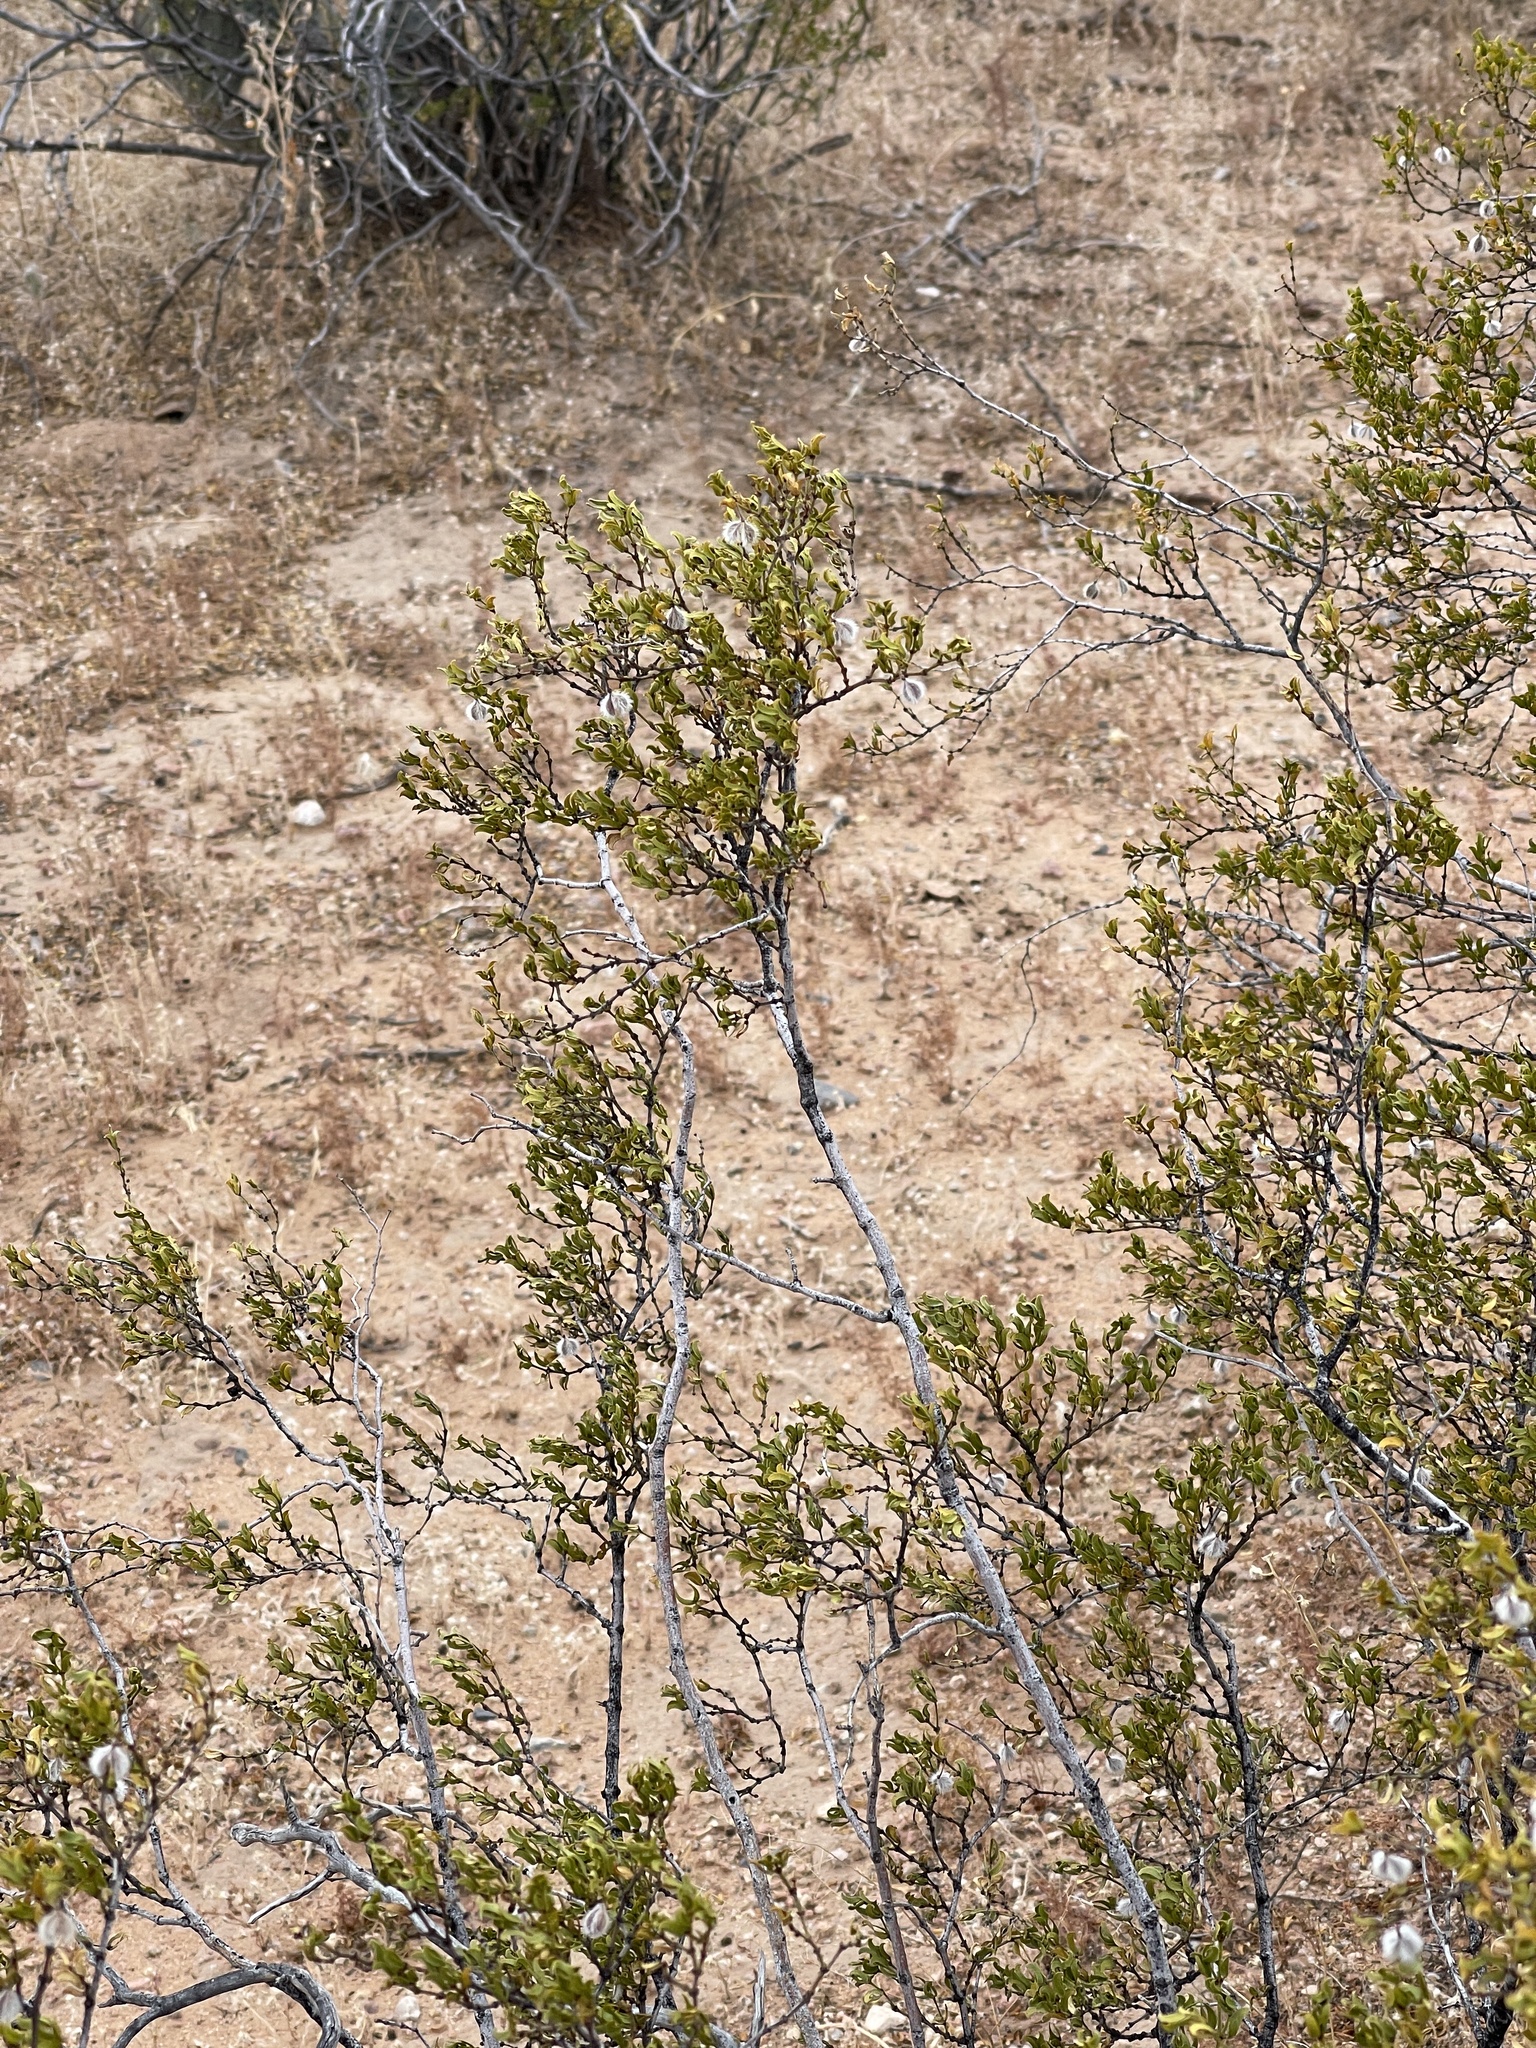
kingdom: Plantae
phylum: Tracheophyta
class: Magnoliopsida
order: Zygophyllales
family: Zygophyllaceae
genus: Larrea
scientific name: Larrea tridentata
